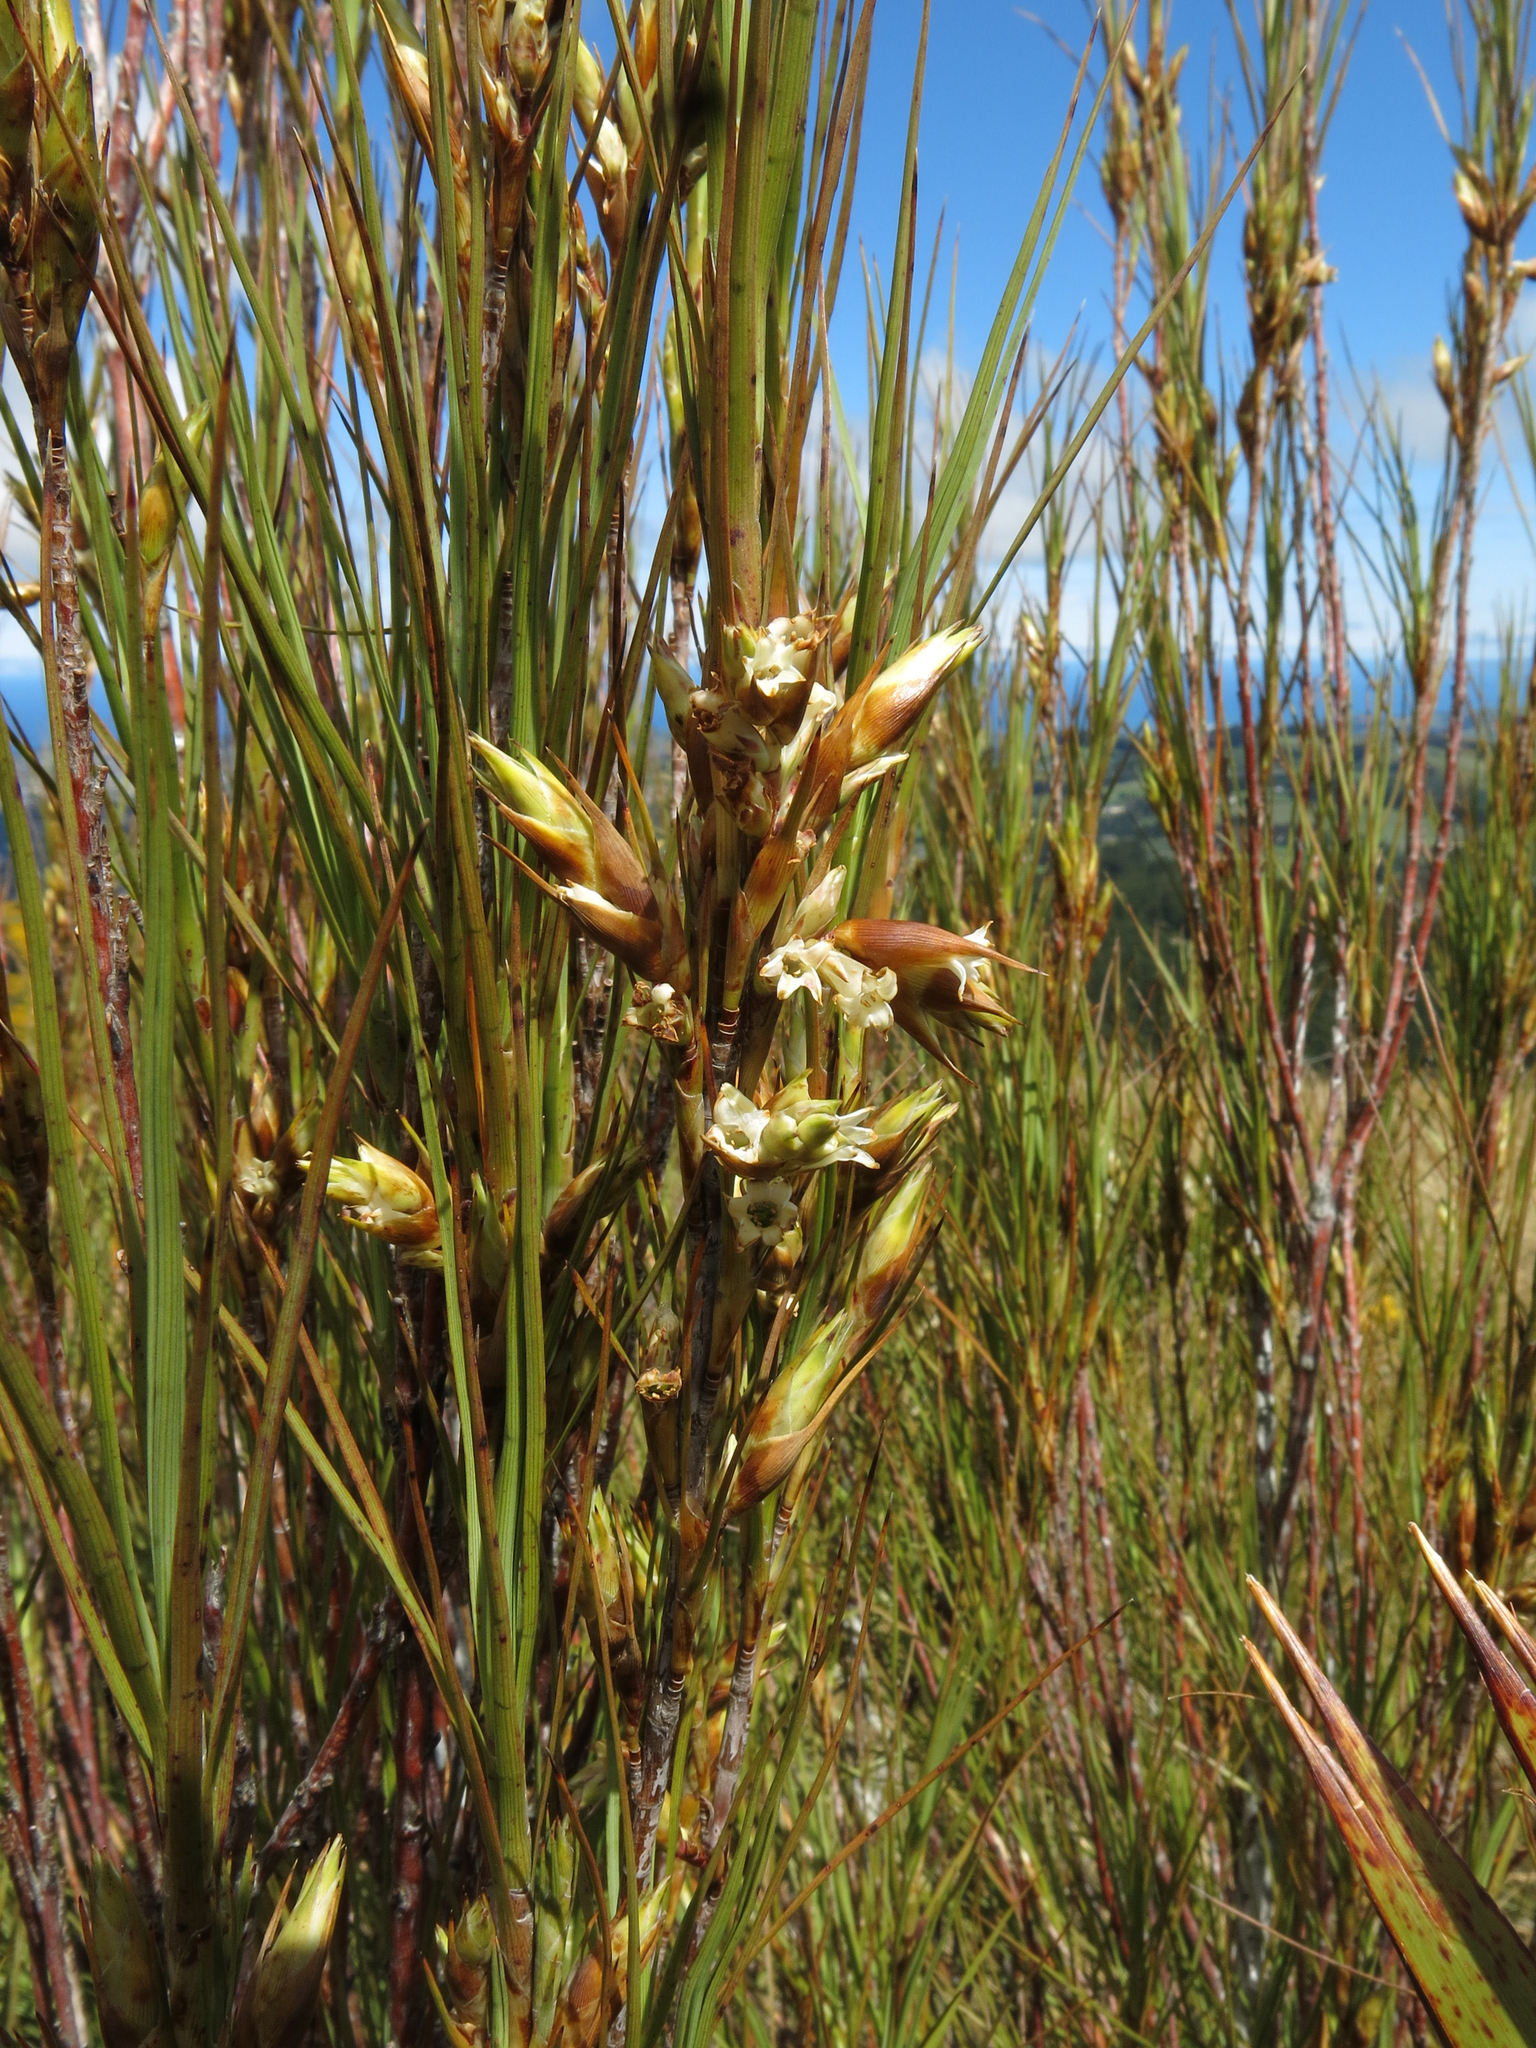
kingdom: Plantae
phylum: Tracheophyta
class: Magnoliopsida
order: Ericales
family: Ericaceae
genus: Dracophyllum
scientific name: Dracophyllum longifolium
